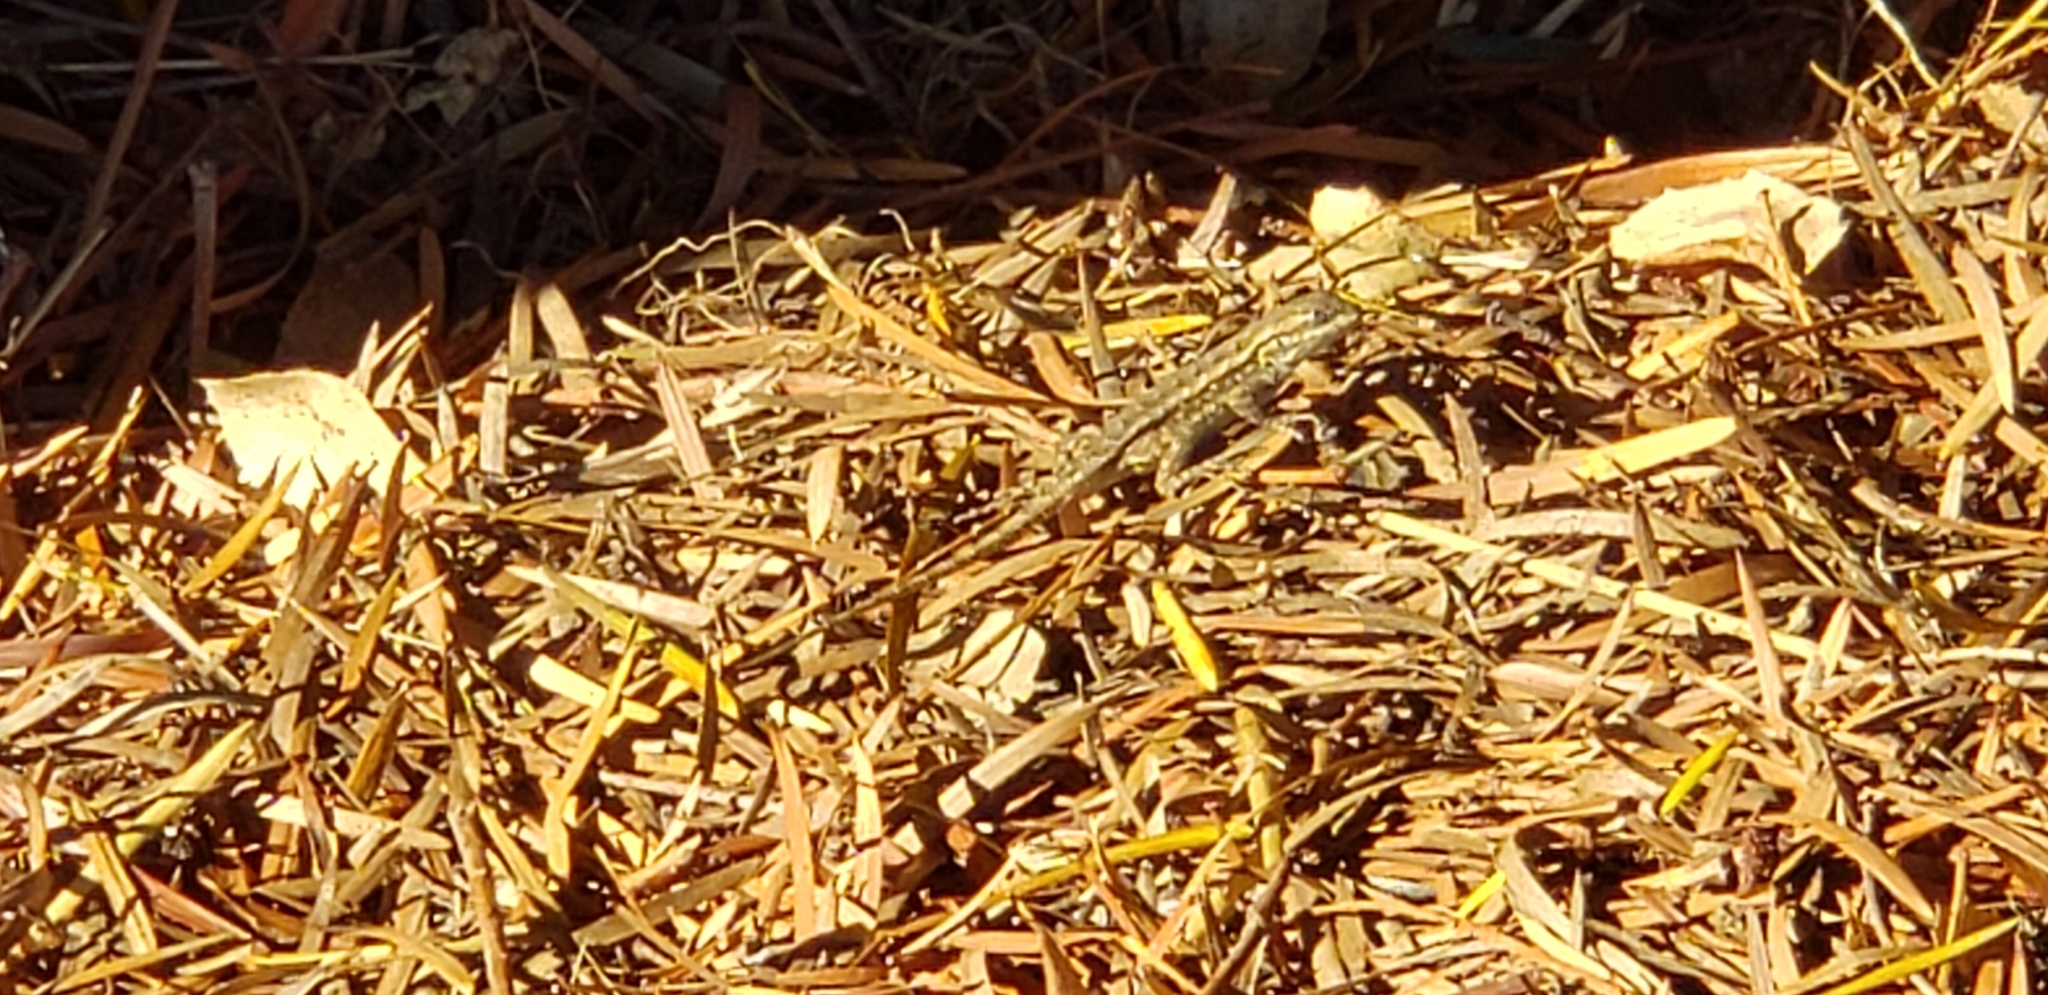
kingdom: Animalia
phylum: Chordata
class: Squamata
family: Phrynosomatidae
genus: Sceloporus
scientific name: Sceloporus occidentalis
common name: Western fence lizard
